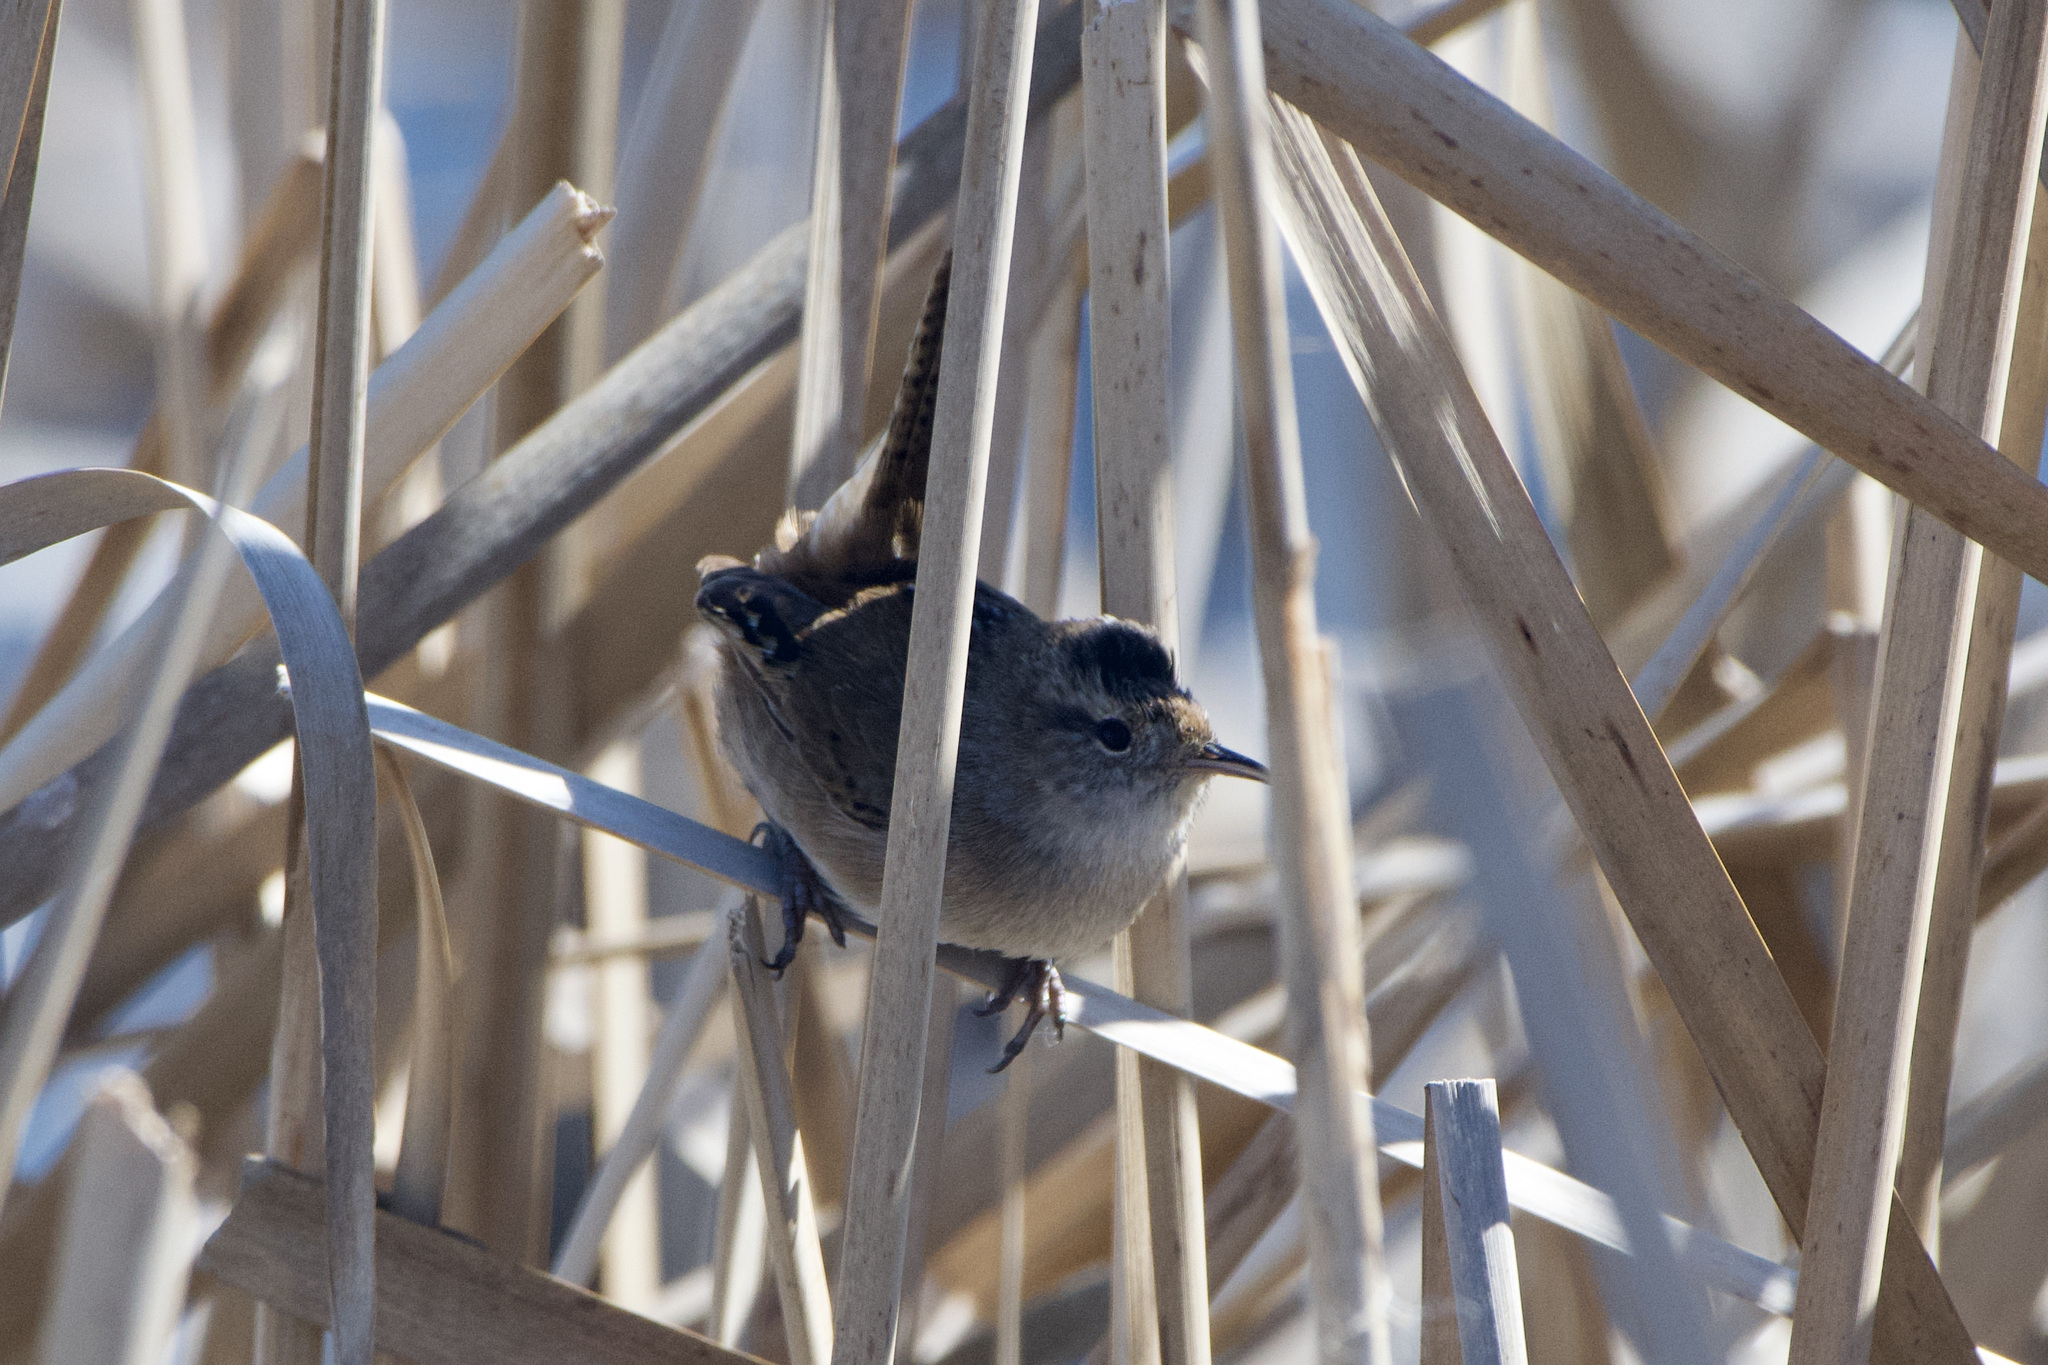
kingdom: Animalia
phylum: Chordata
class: Aves
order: Passeriformes
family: Troglodytidae
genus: Cistothorus
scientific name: Cistothorus palustris
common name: Marsh wren
